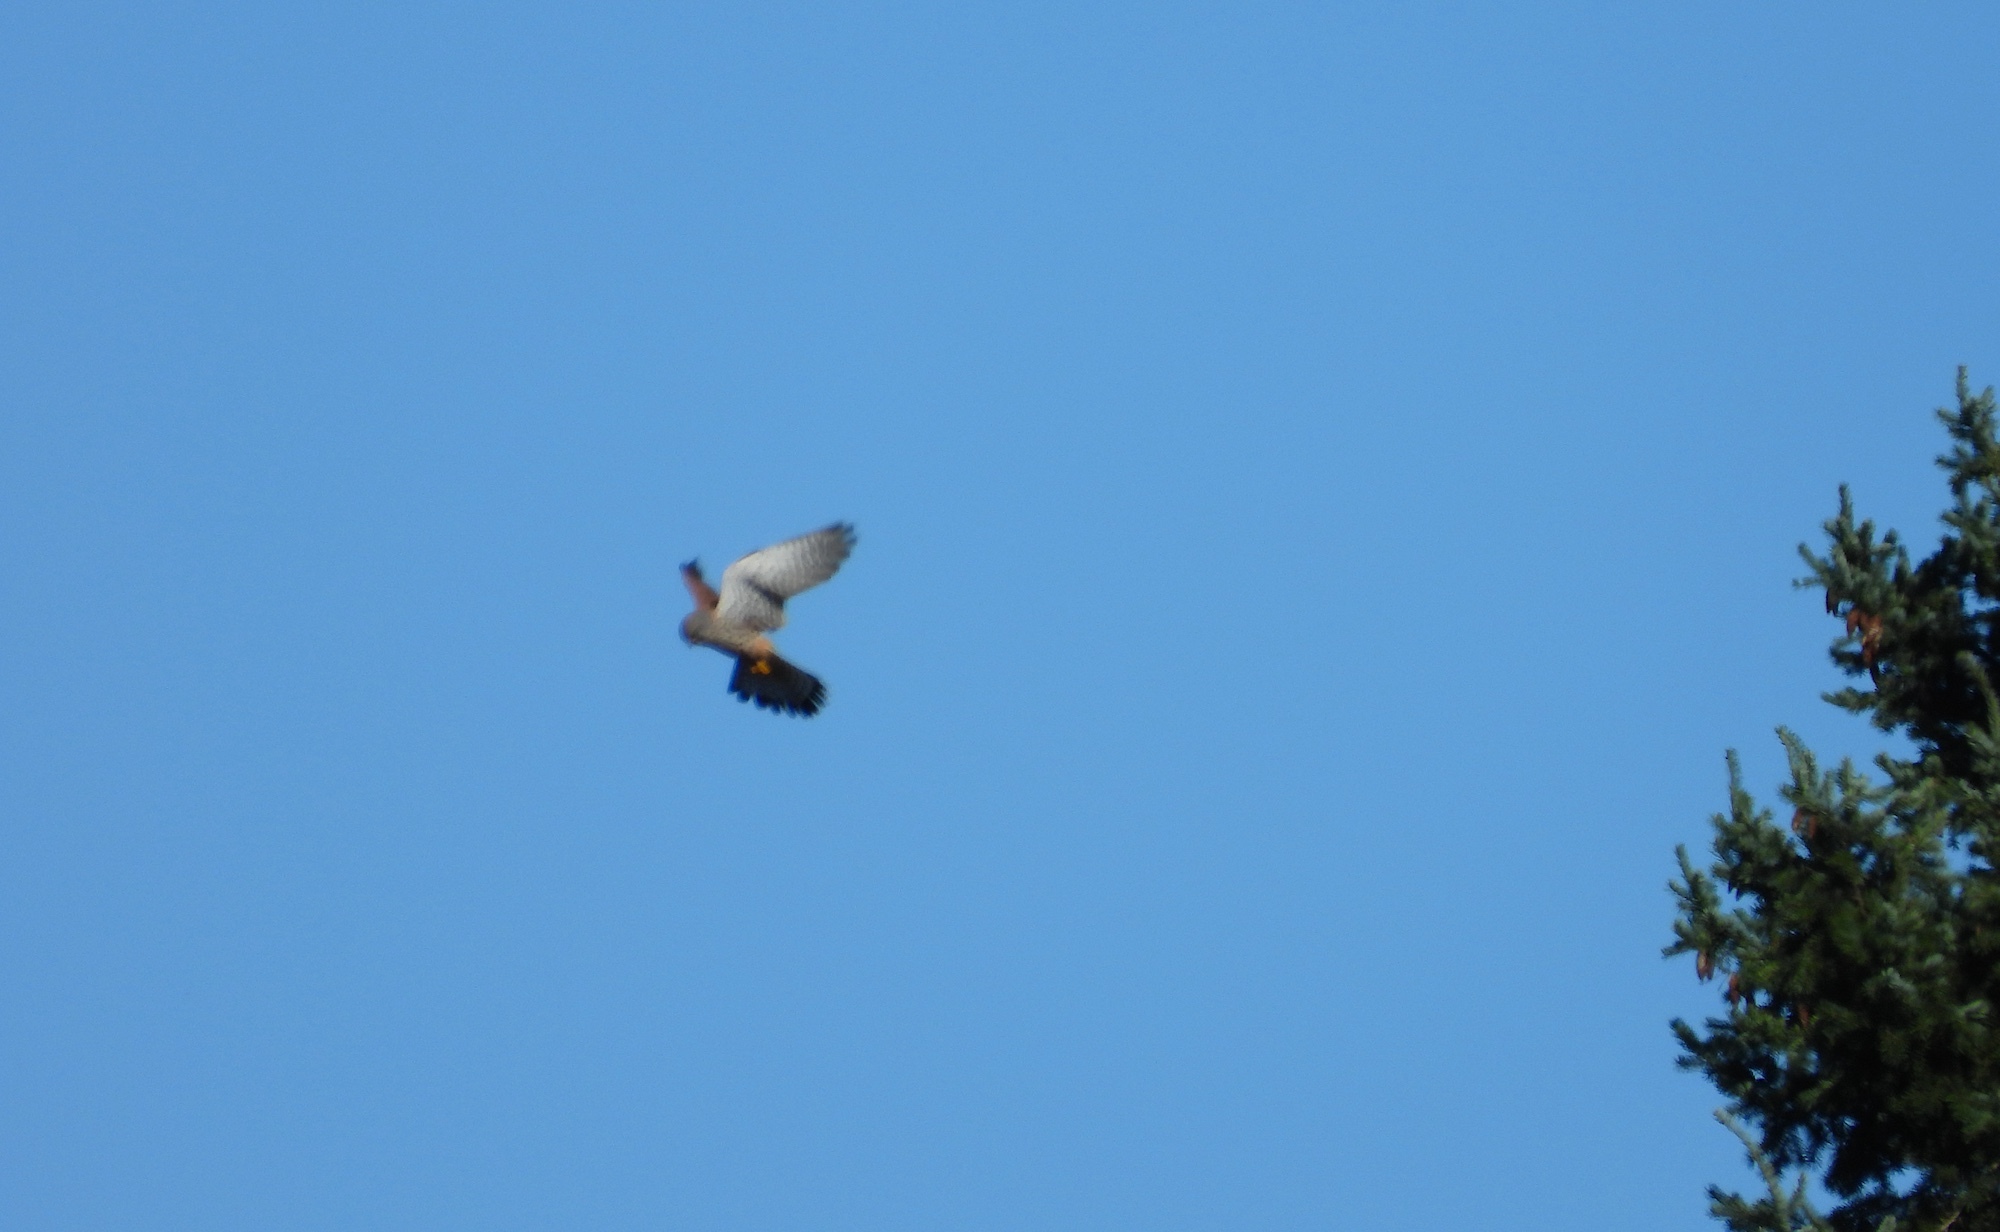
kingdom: Animalia
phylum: Chordata
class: Aves
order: Falconiformes
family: Falconidae
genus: Falco
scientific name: Falco tinnunculus
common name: Common kestrel
